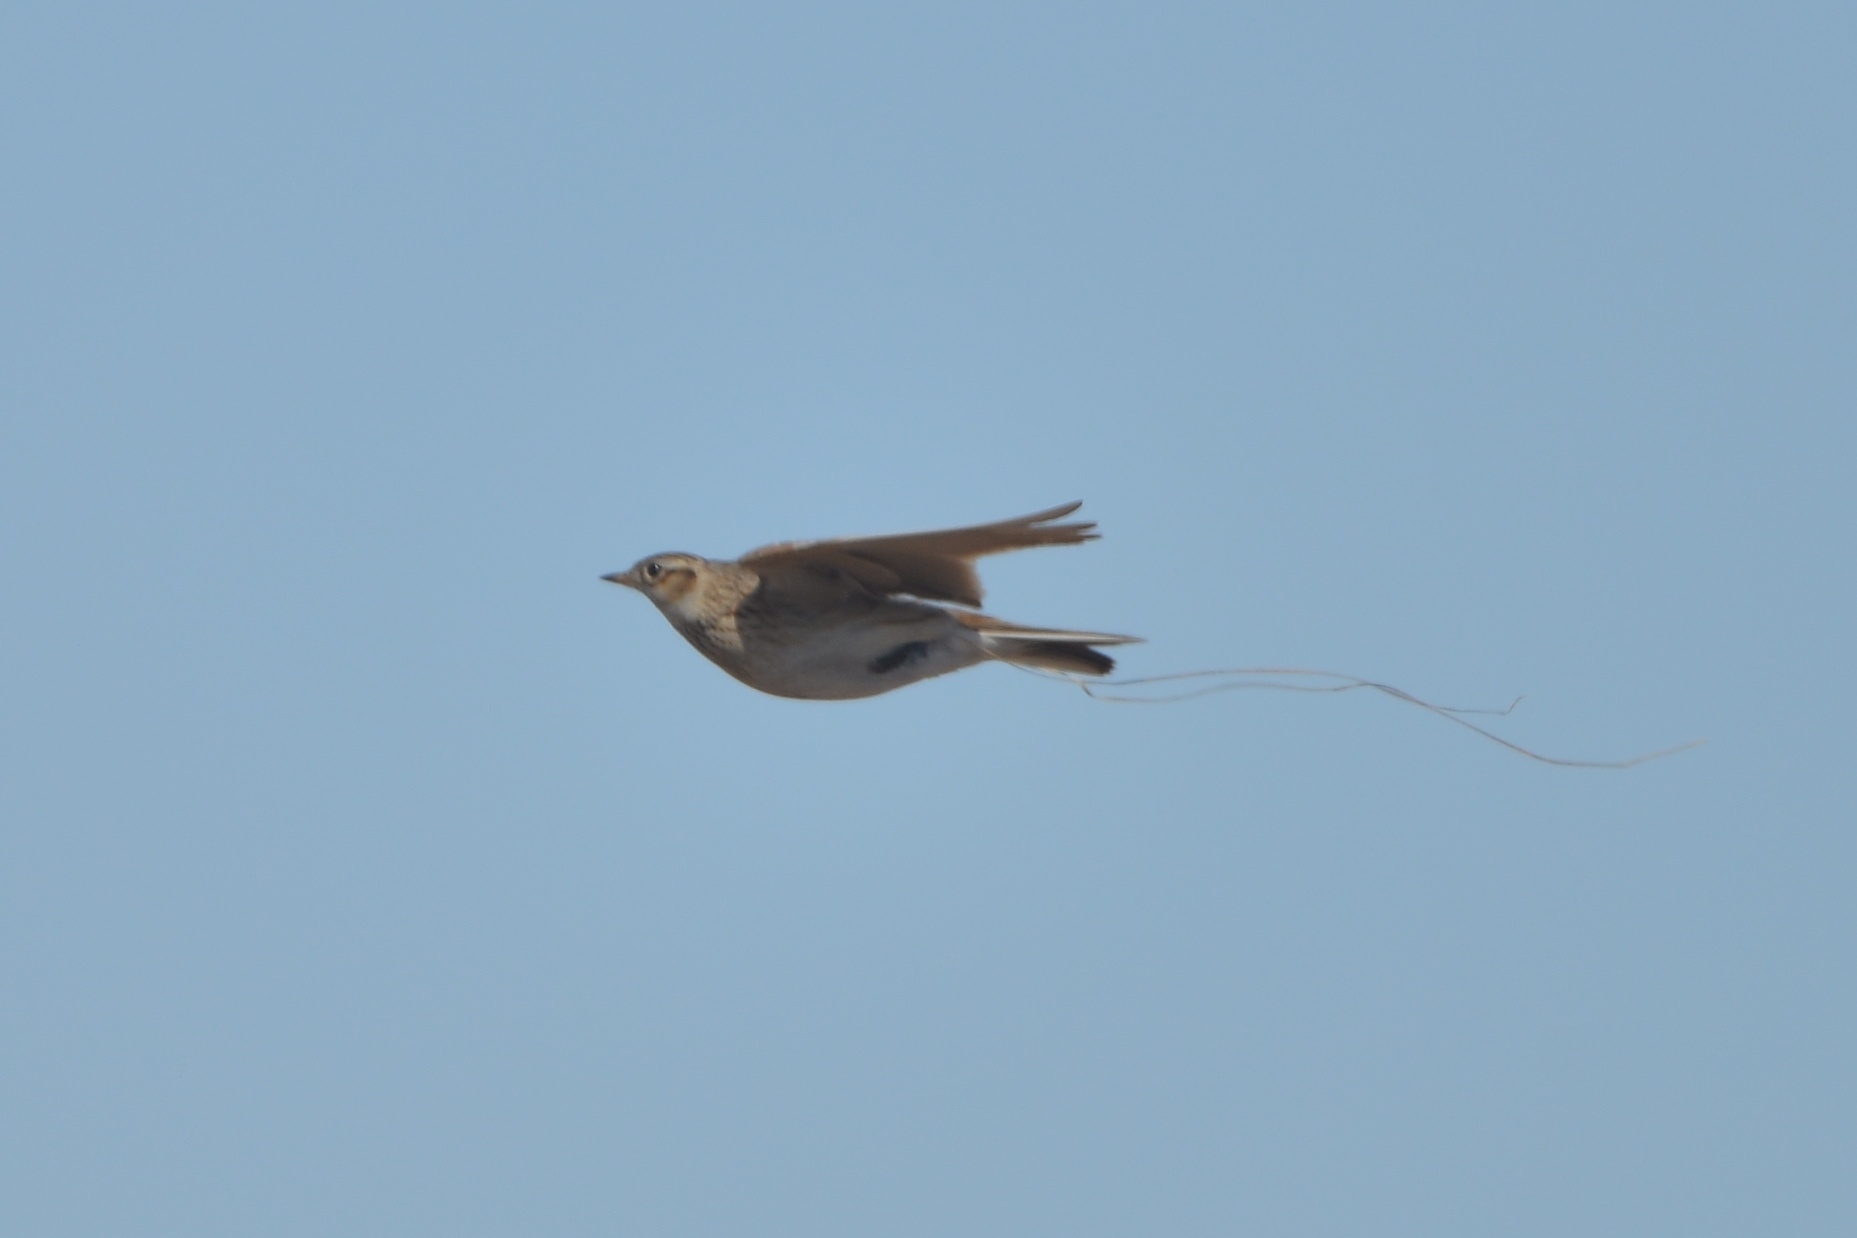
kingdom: Animalia
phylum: Chordata
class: Aves
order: Passeriformes
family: Alaudidae
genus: Alauda
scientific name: Alauda arvensis
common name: Eurasian skylark
